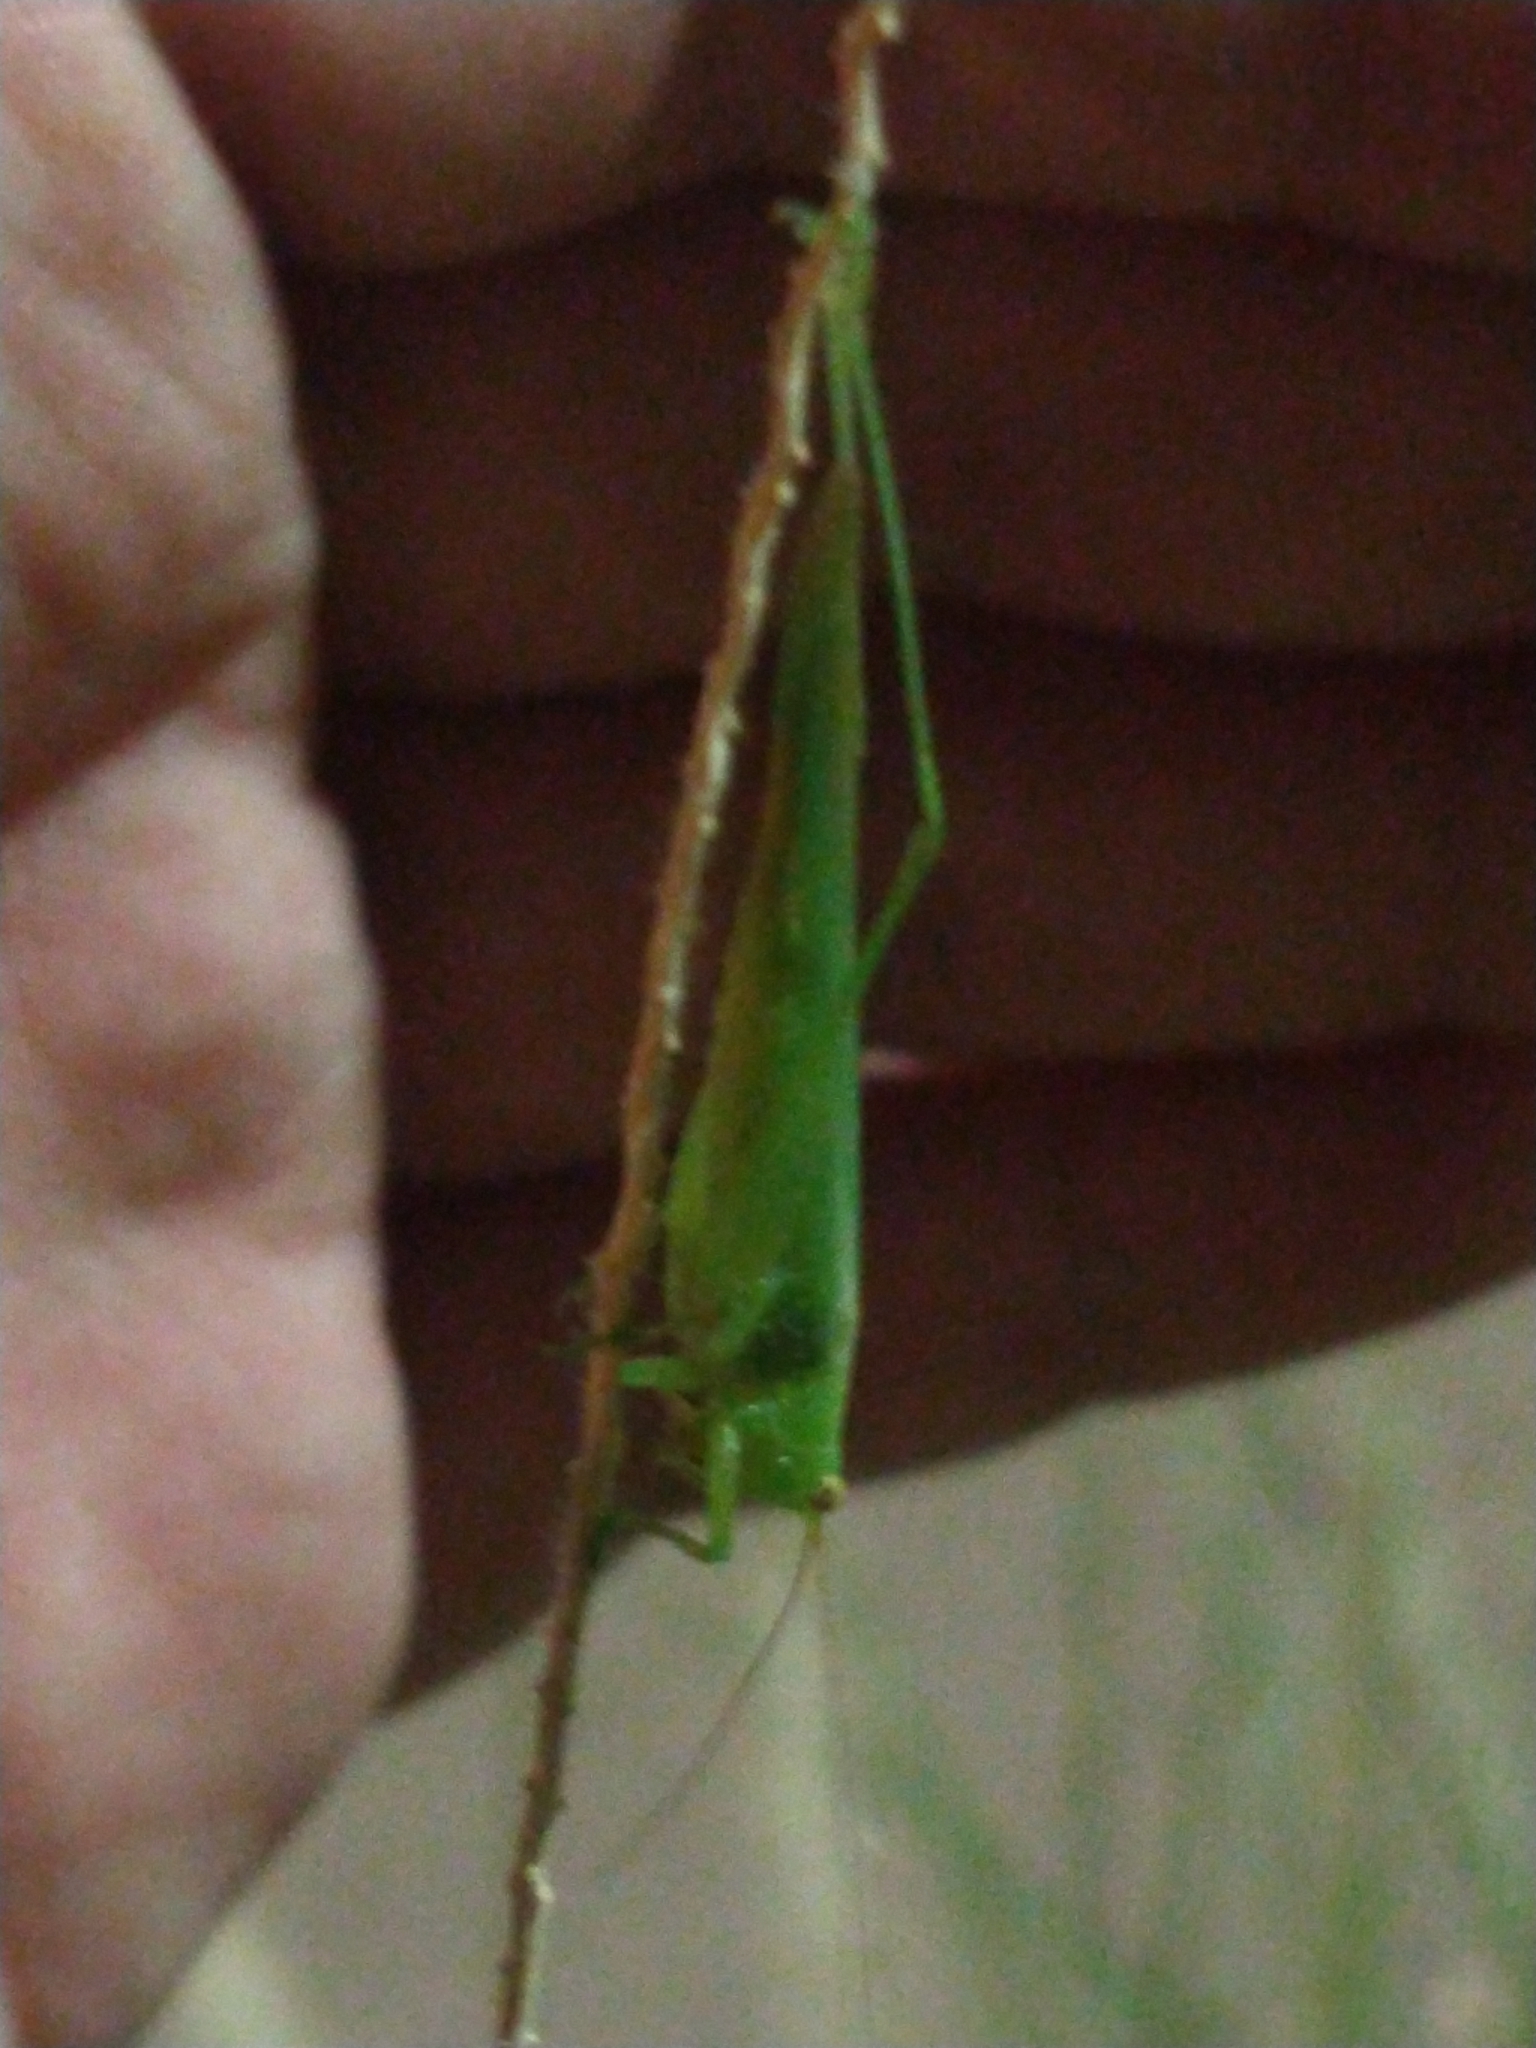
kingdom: Animalia
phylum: Arthropoda
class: Insecta
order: Orthoptera
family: Tettigoniidae
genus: Conocephalus
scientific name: Conocephalus longipes
